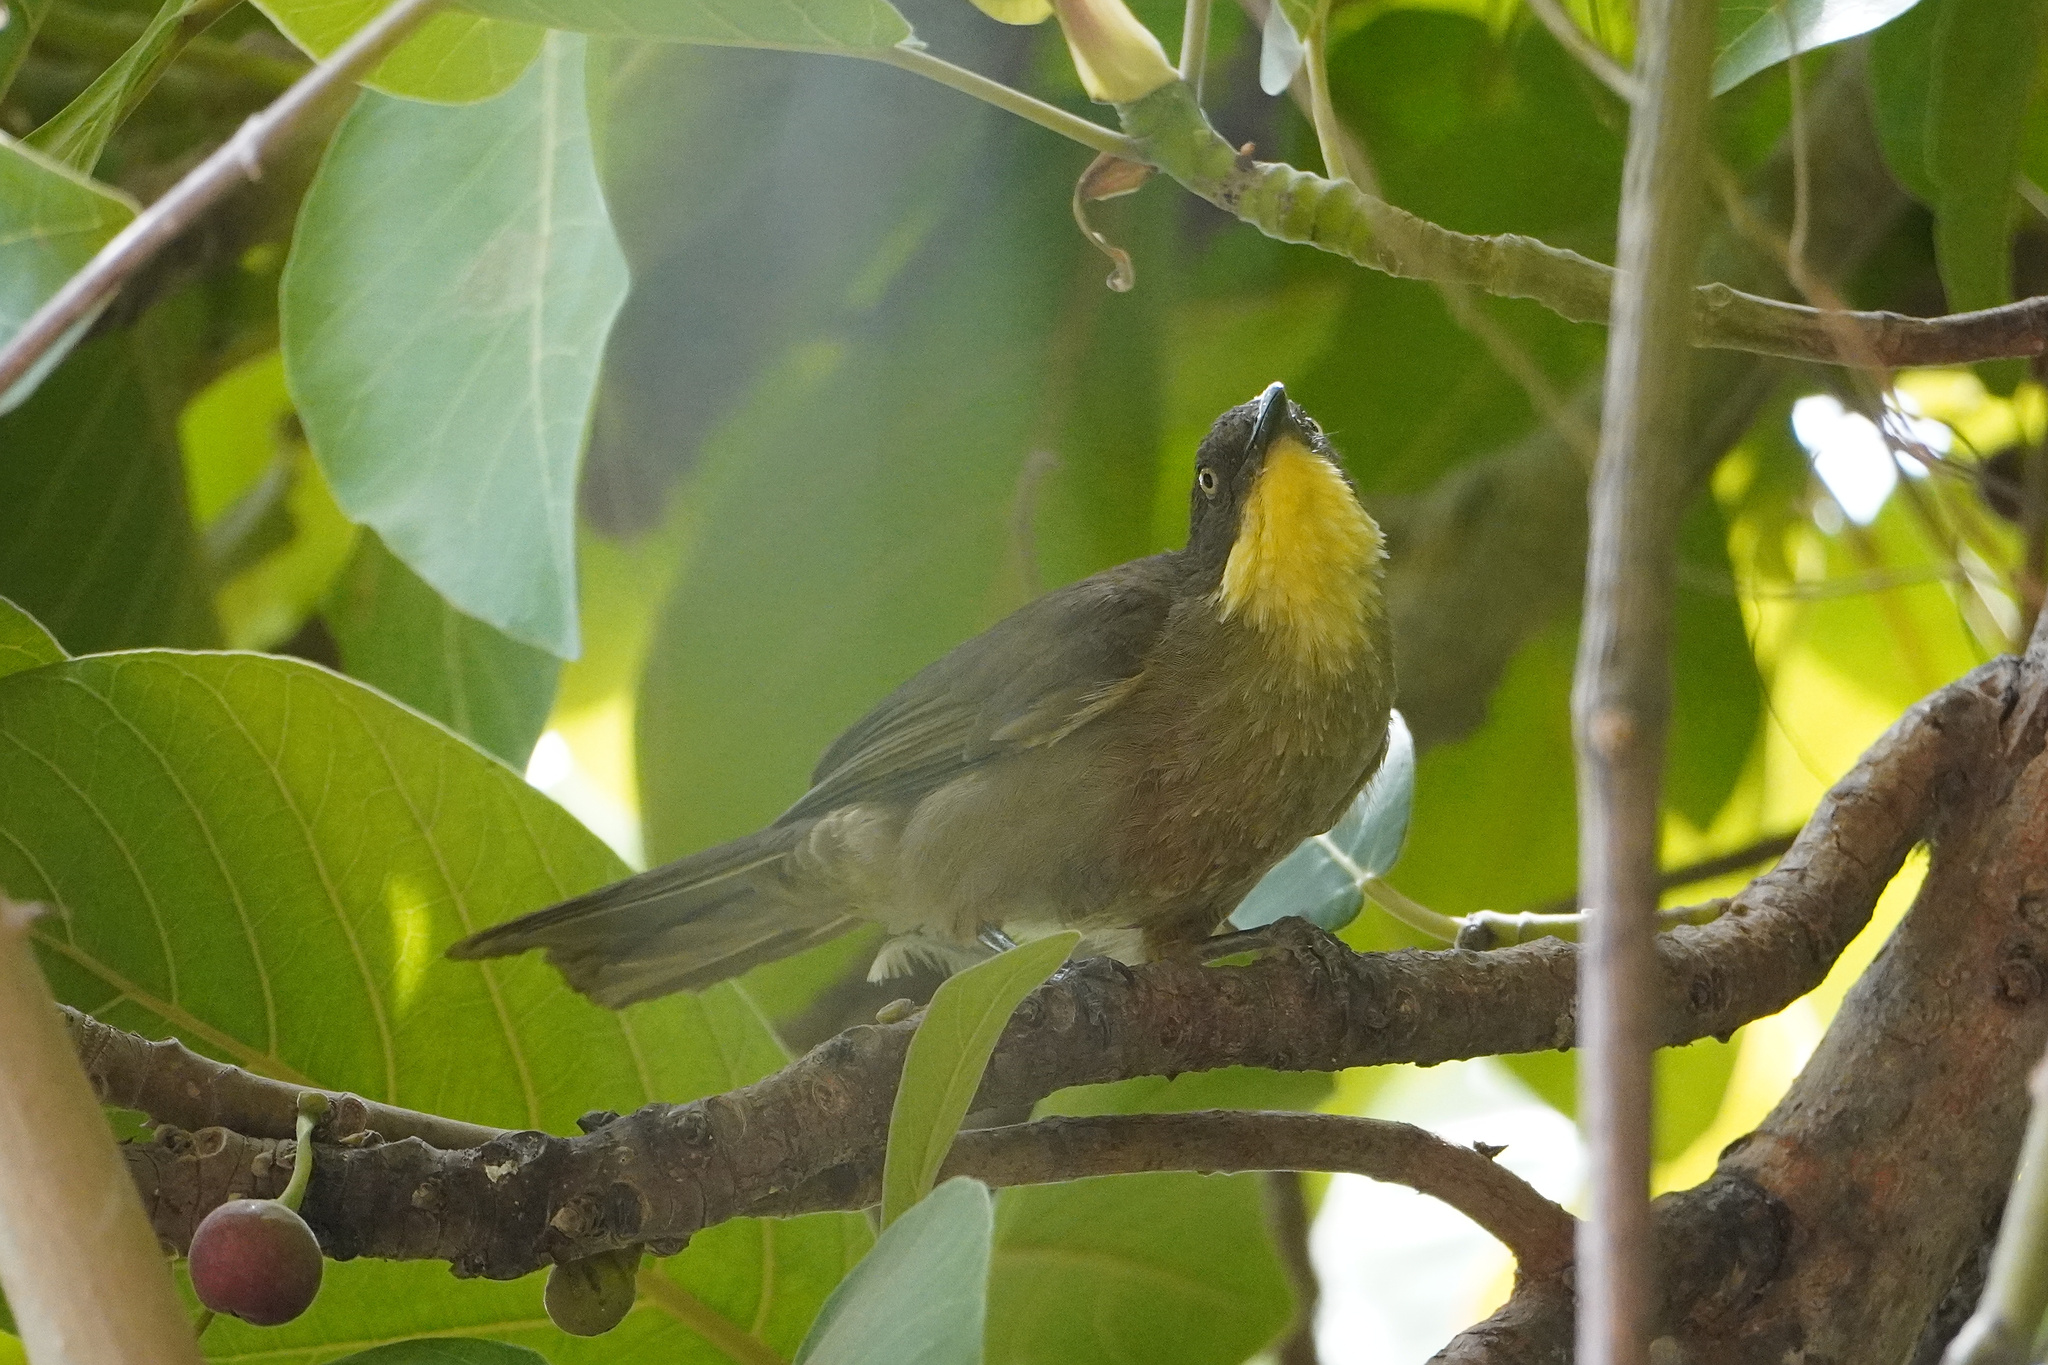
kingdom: Animalia
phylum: Chordata
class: Aves
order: Passeriformes
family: Pycnonotidae
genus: Atimastillas
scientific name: Atimastillas flavicollis
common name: Yellow-throated leaflove
